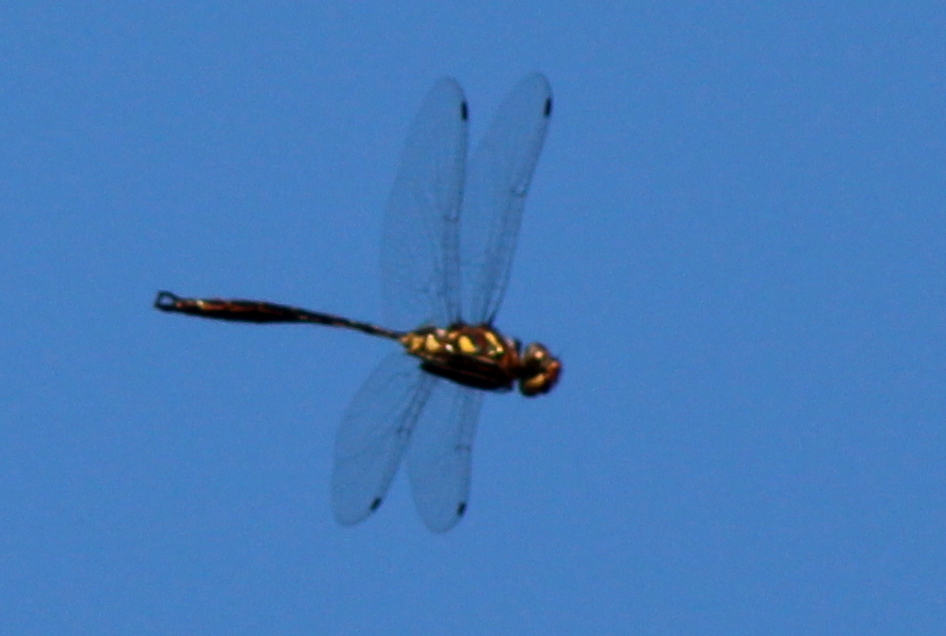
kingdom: Animalia
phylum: Arthropoda
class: Insecta
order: Odonata
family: Corduliidae
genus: Somatochlora
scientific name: Somatochlora tenebrosa
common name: Clamp-tipped emerald
